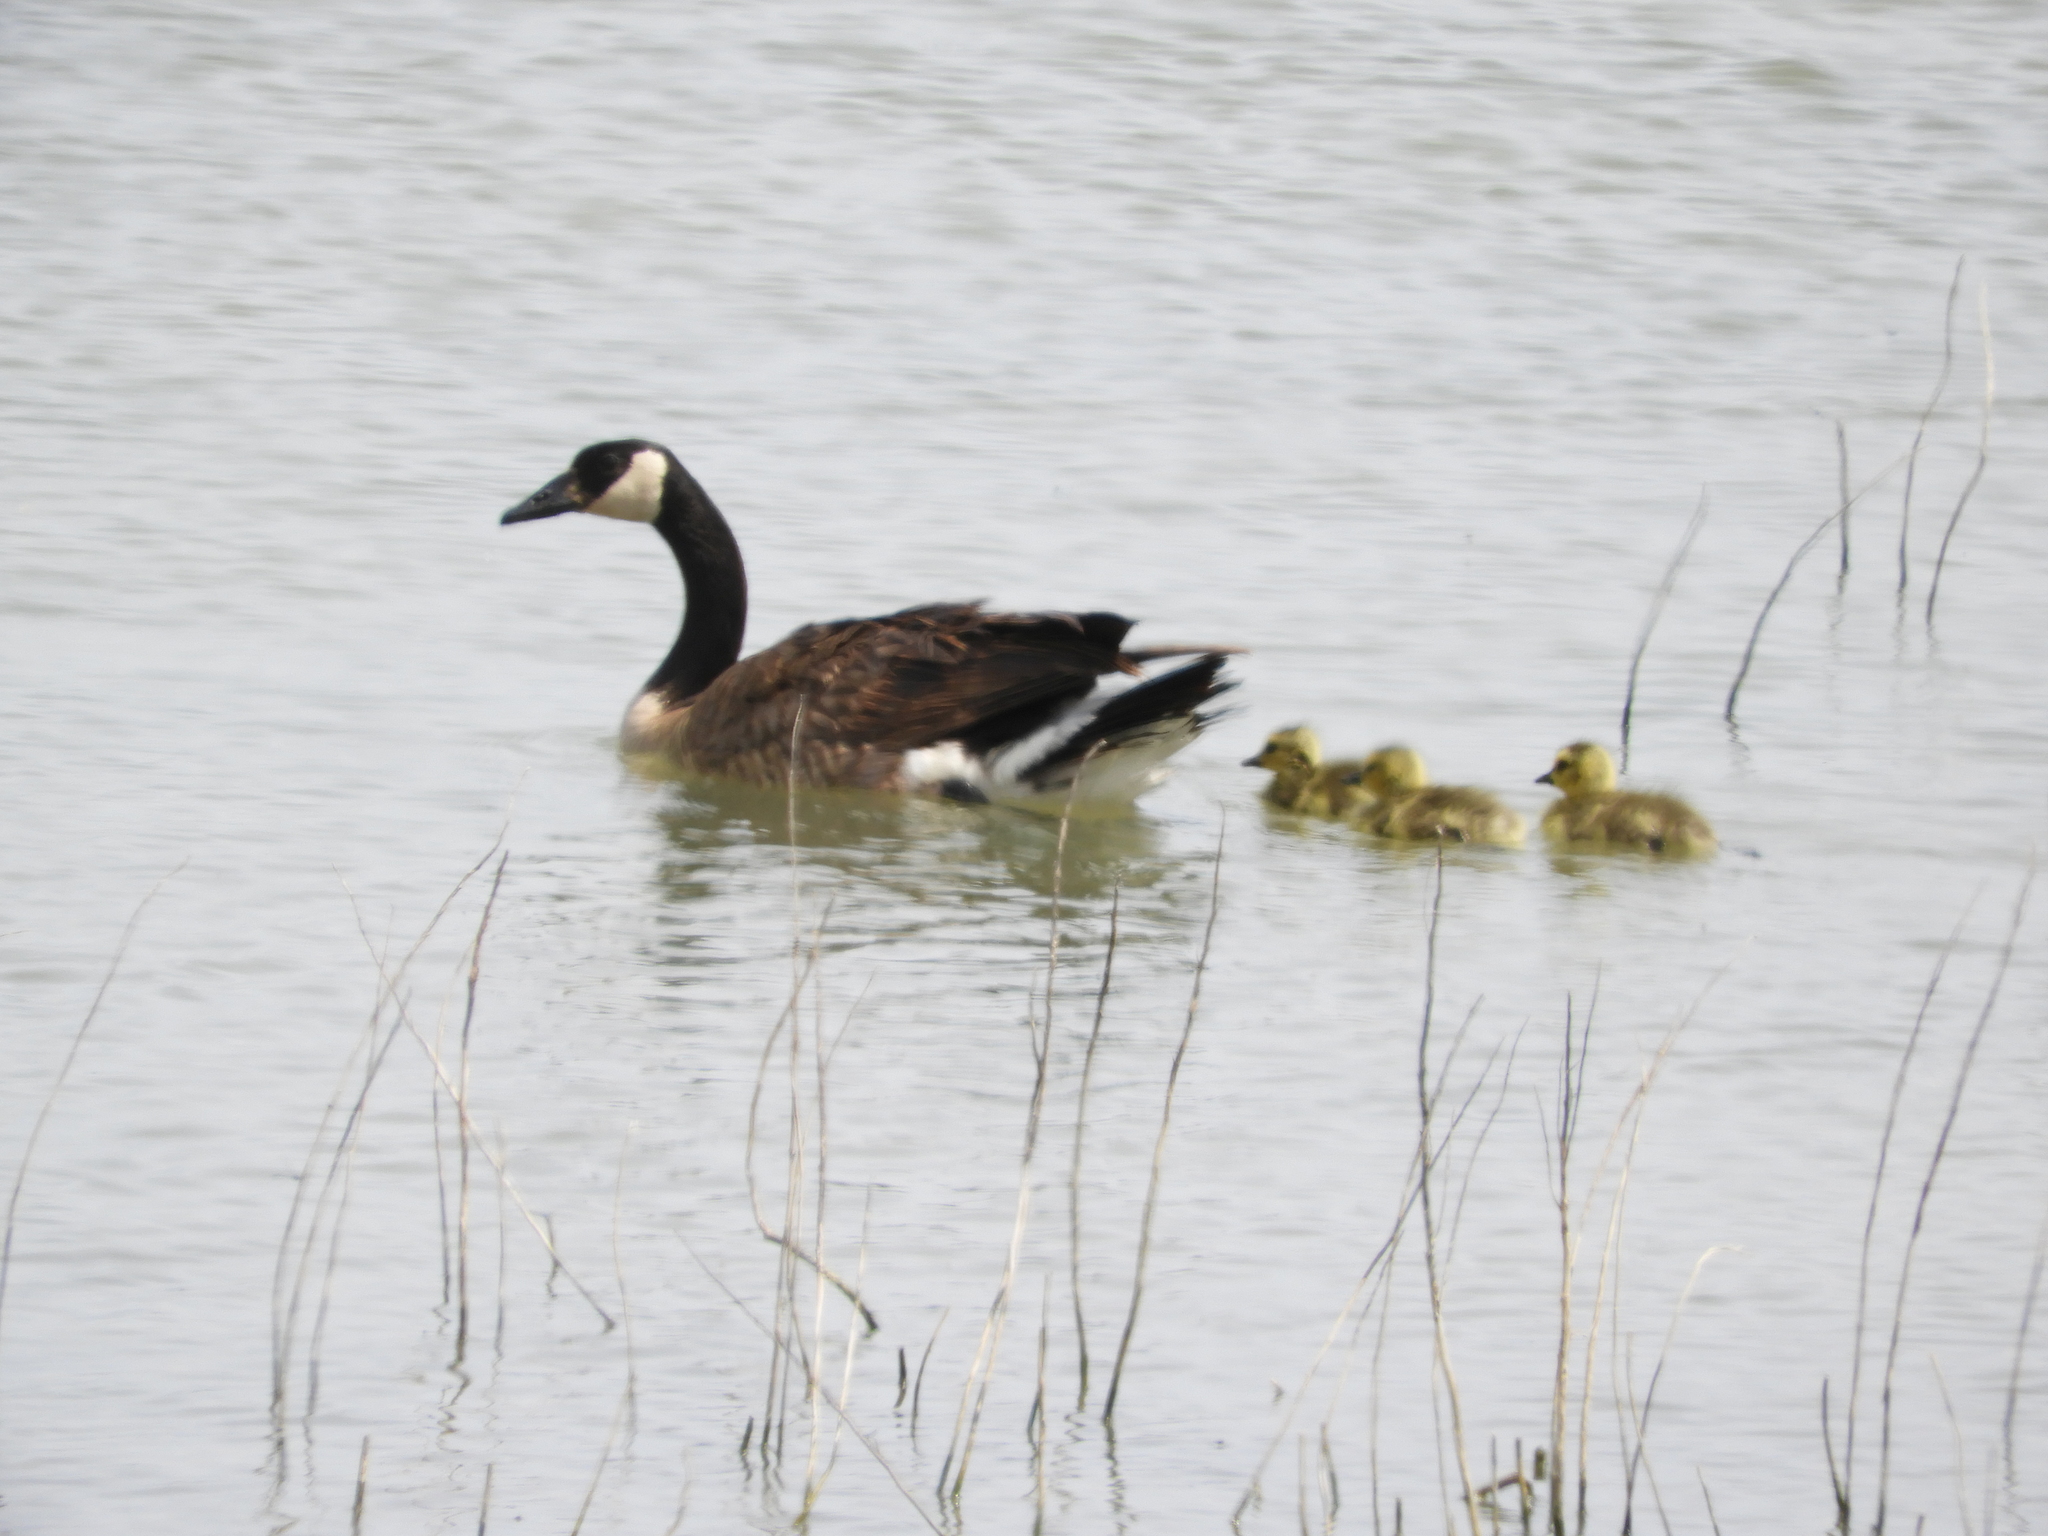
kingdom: Animalia
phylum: Chordata
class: Aves
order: Anseriformes
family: Anatidae
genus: Branta
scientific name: Branta canadensis
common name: Canada goose
